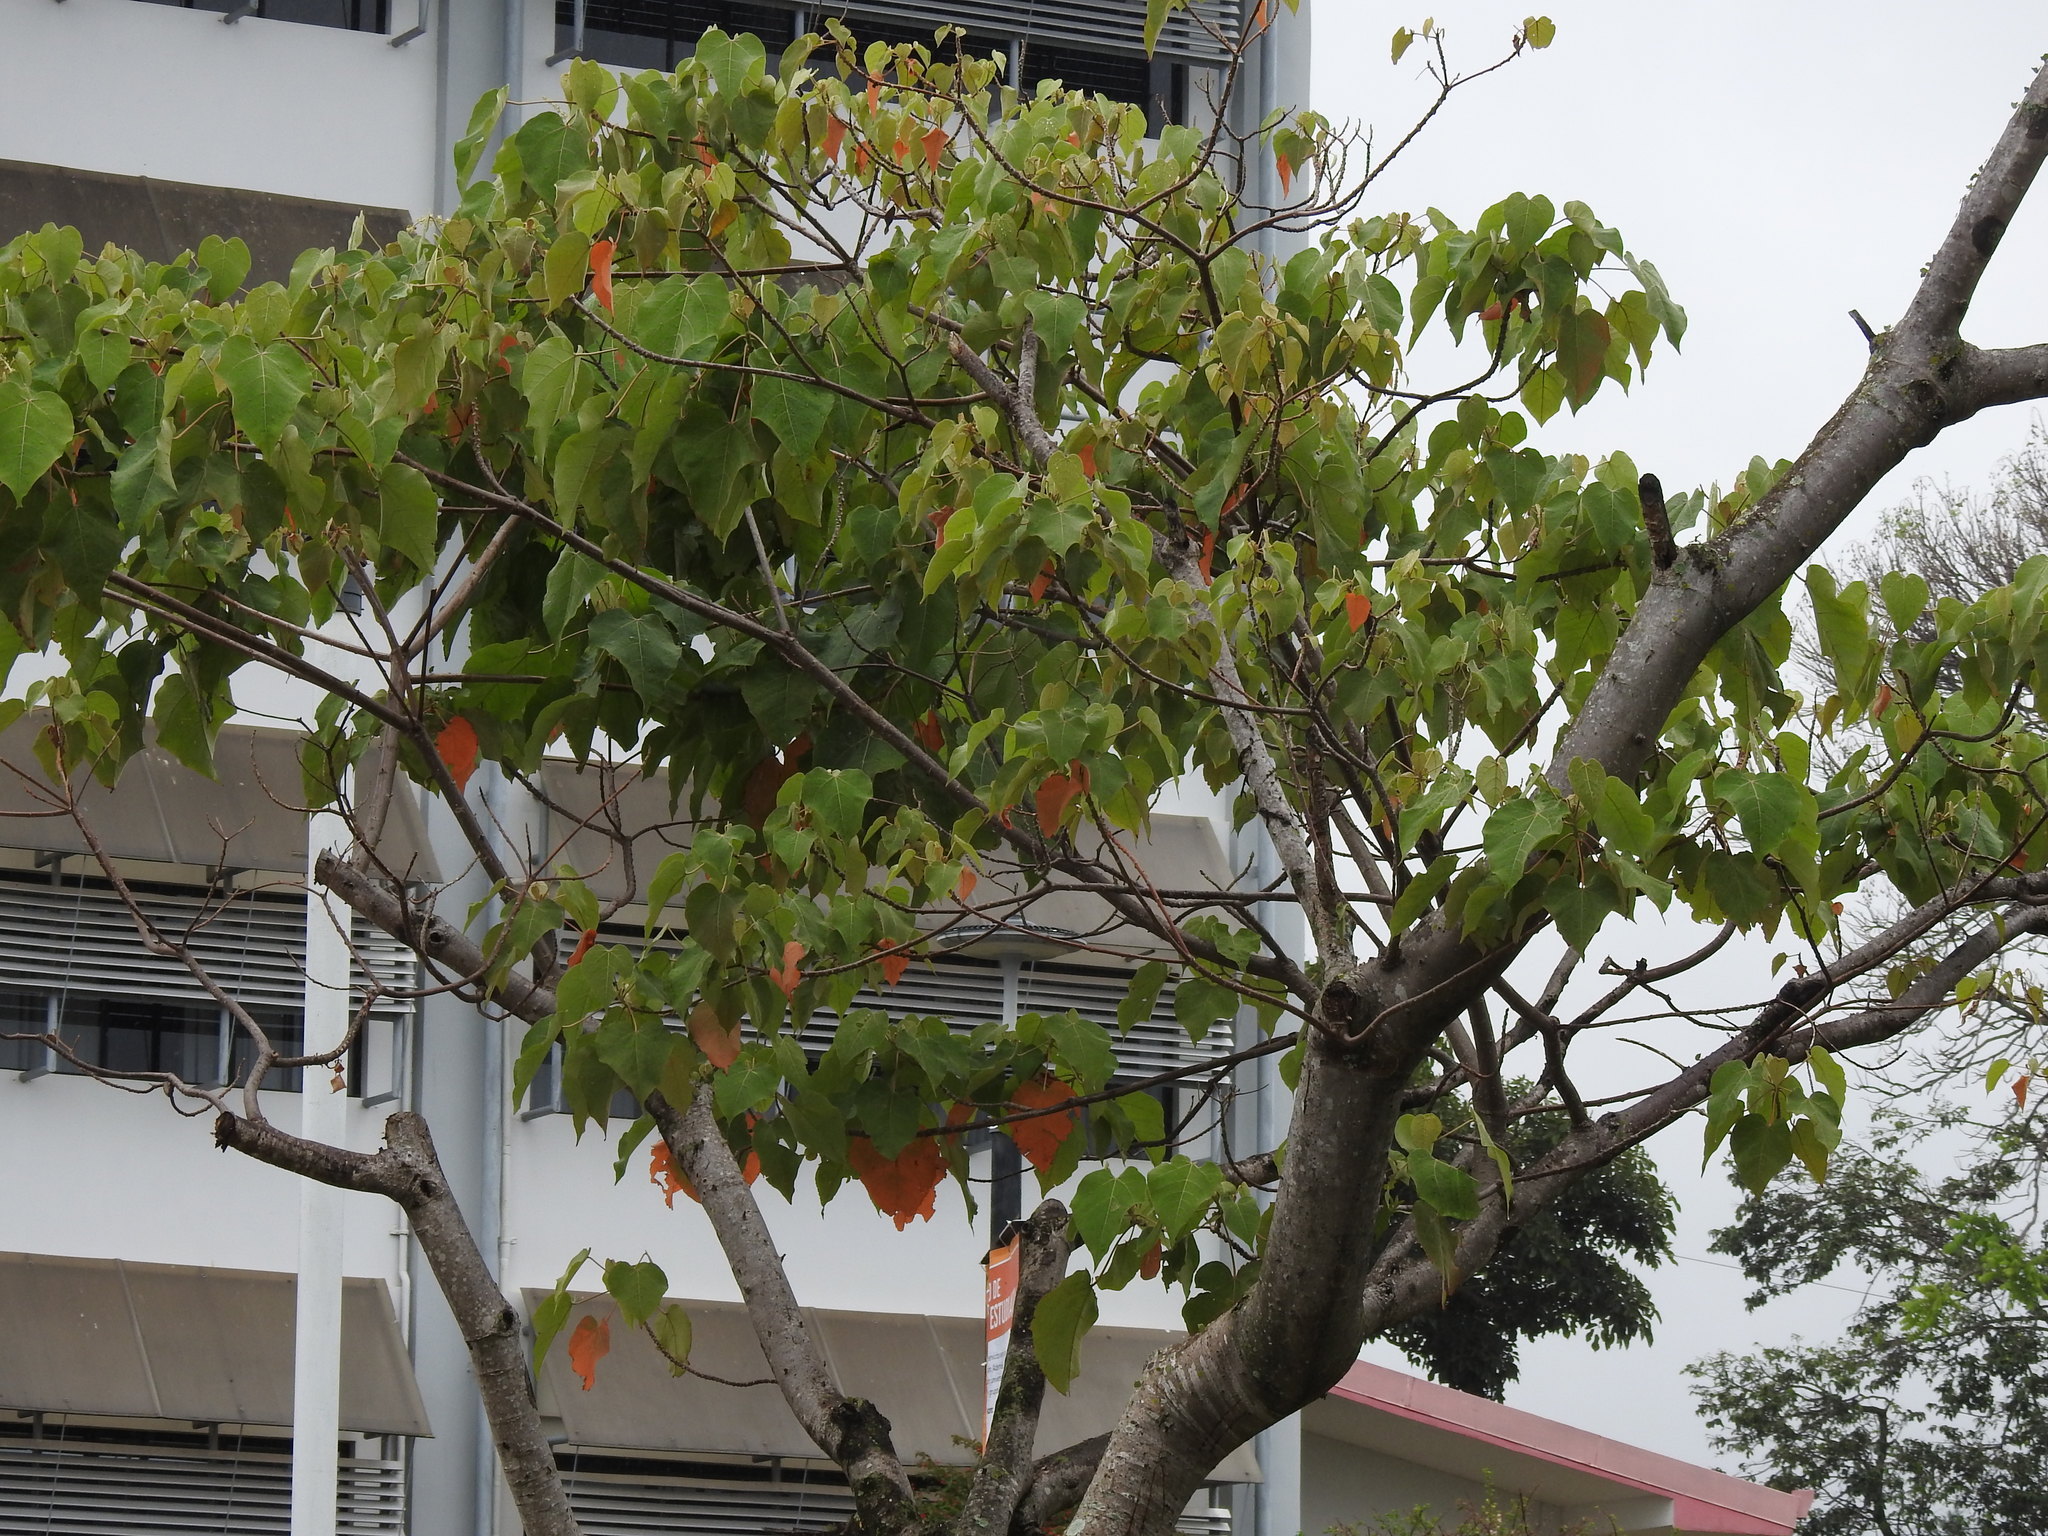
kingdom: Plantae
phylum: Tracheophyta
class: Magnoliopsida
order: Malpighiales
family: Euphorbiaceae
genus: Croton
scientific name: Croton draco
